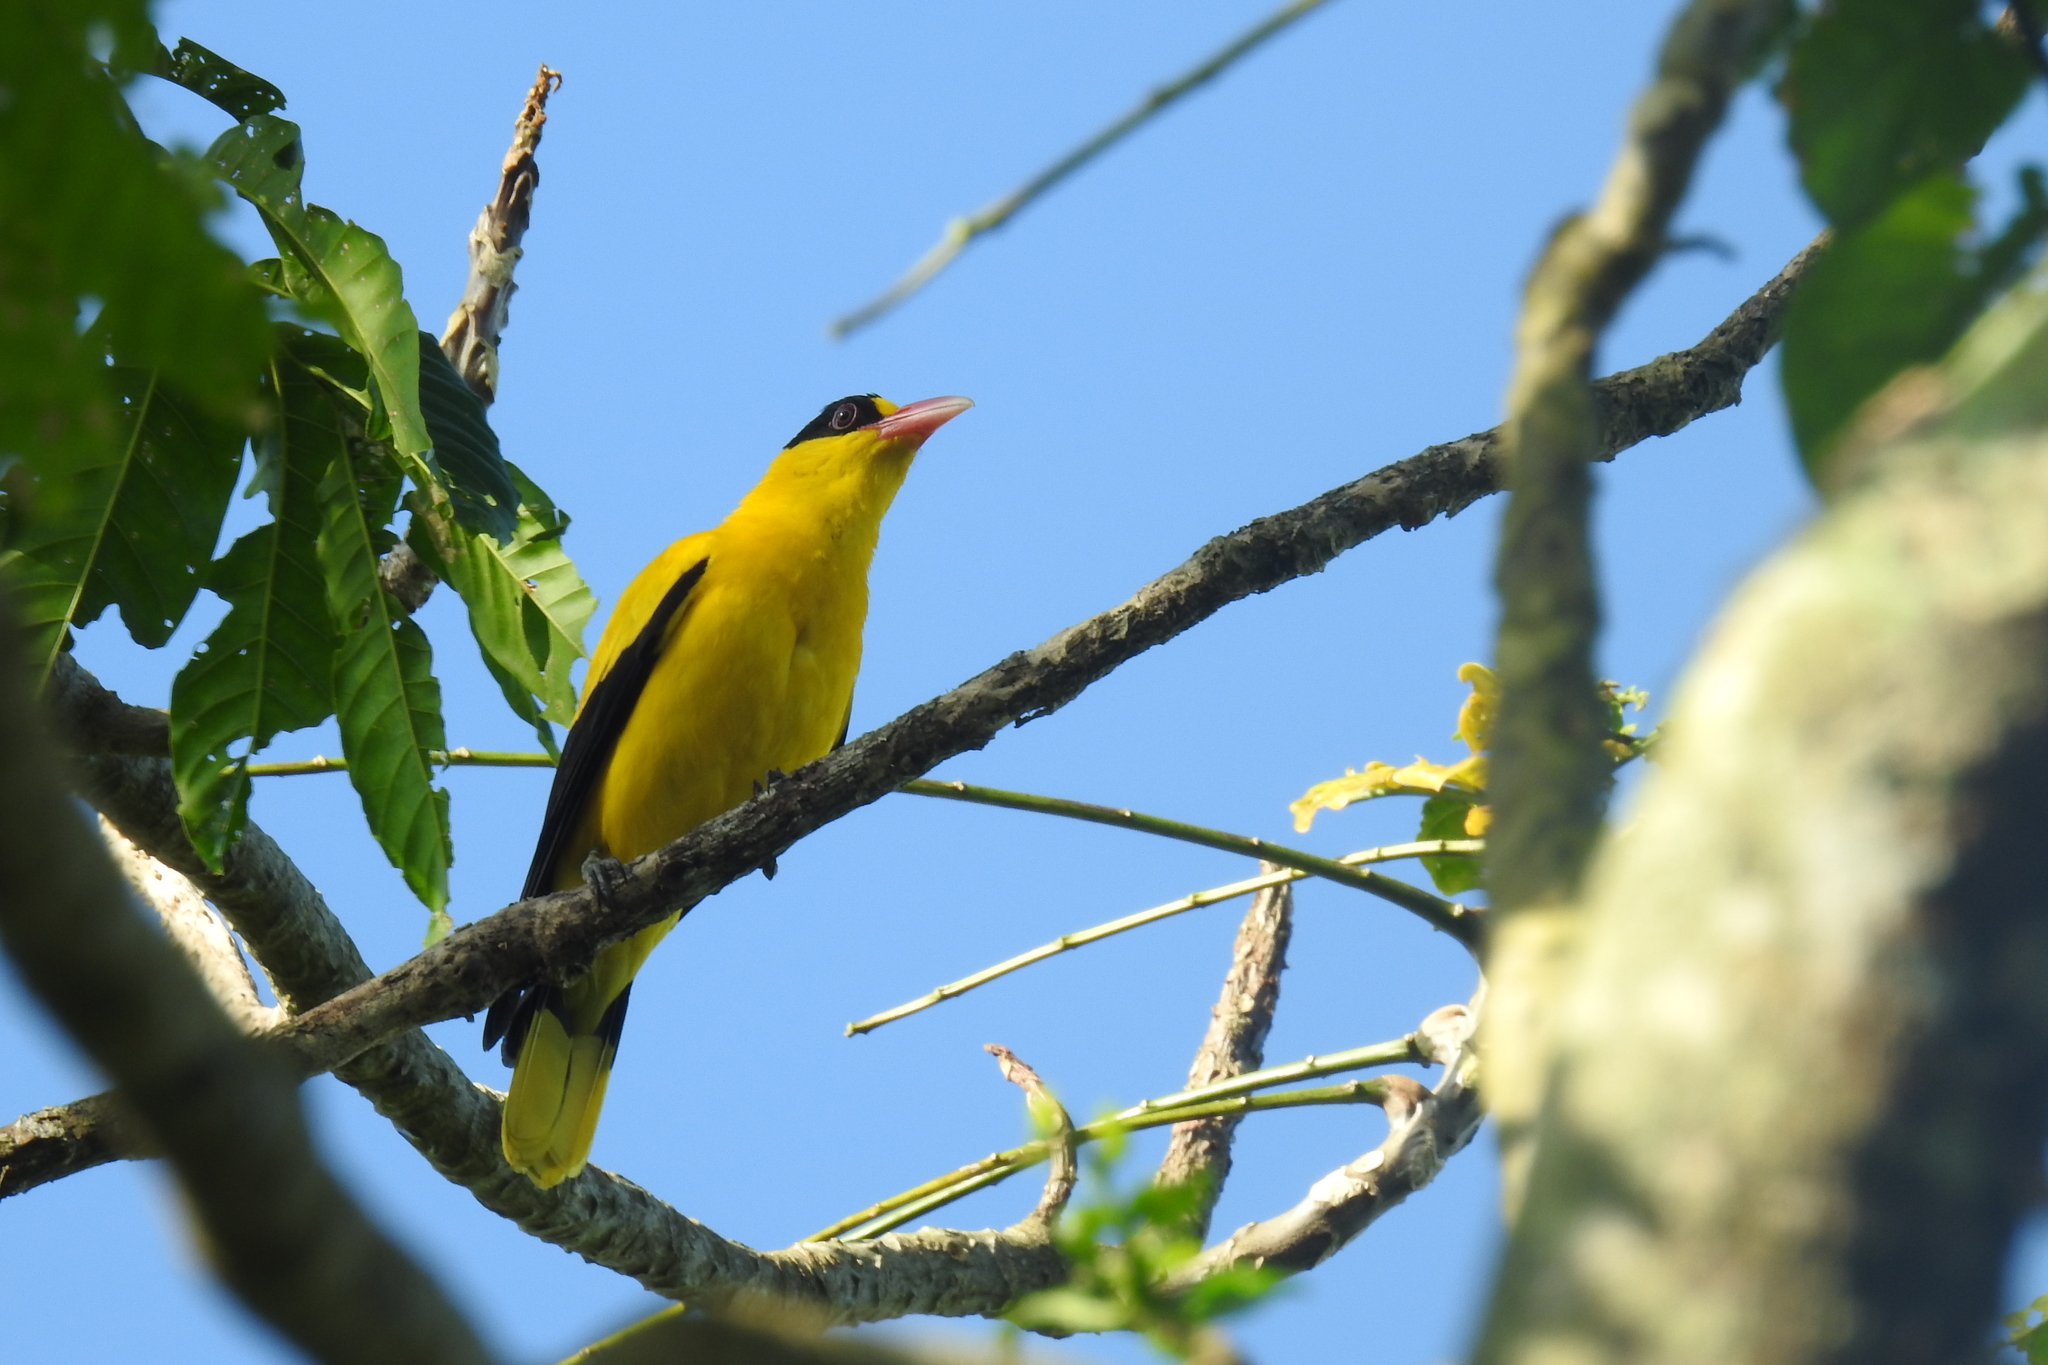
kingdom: Animalia
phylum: Chordata
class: Aves
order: Passeriformes
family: Oriolidae
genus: Oriolus
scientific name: Oriolus chinensis
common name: Black-naped oriole
